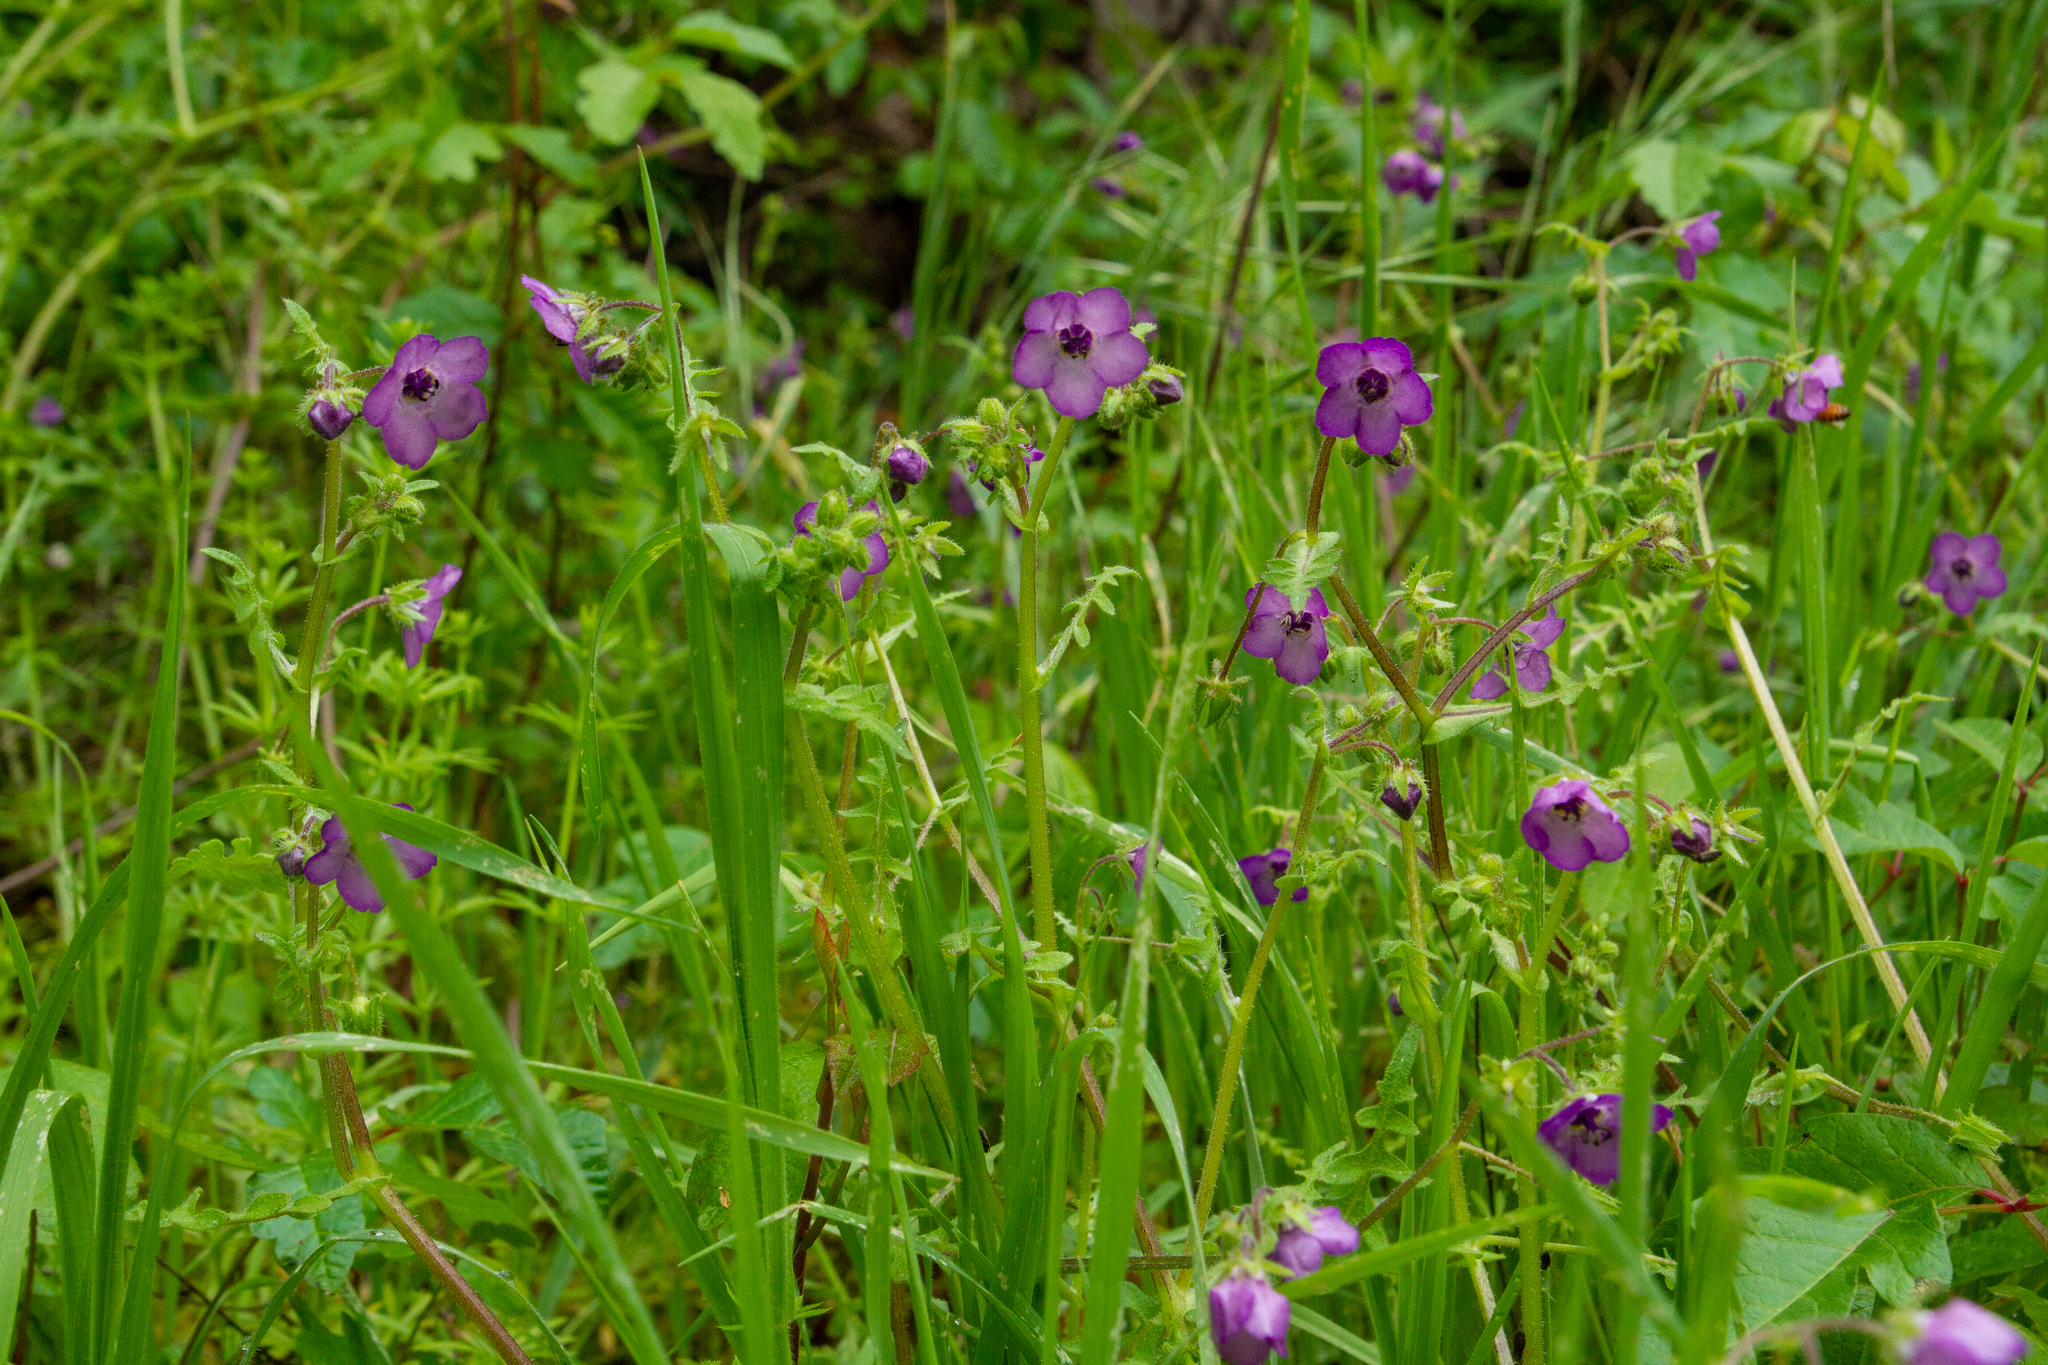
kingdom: Plantae
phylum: Tracheophyta
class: Magnoliopsida
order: Boraginales
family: Hydrophyllaceae
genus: Pholistoma
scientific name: Pholistoma auritum
